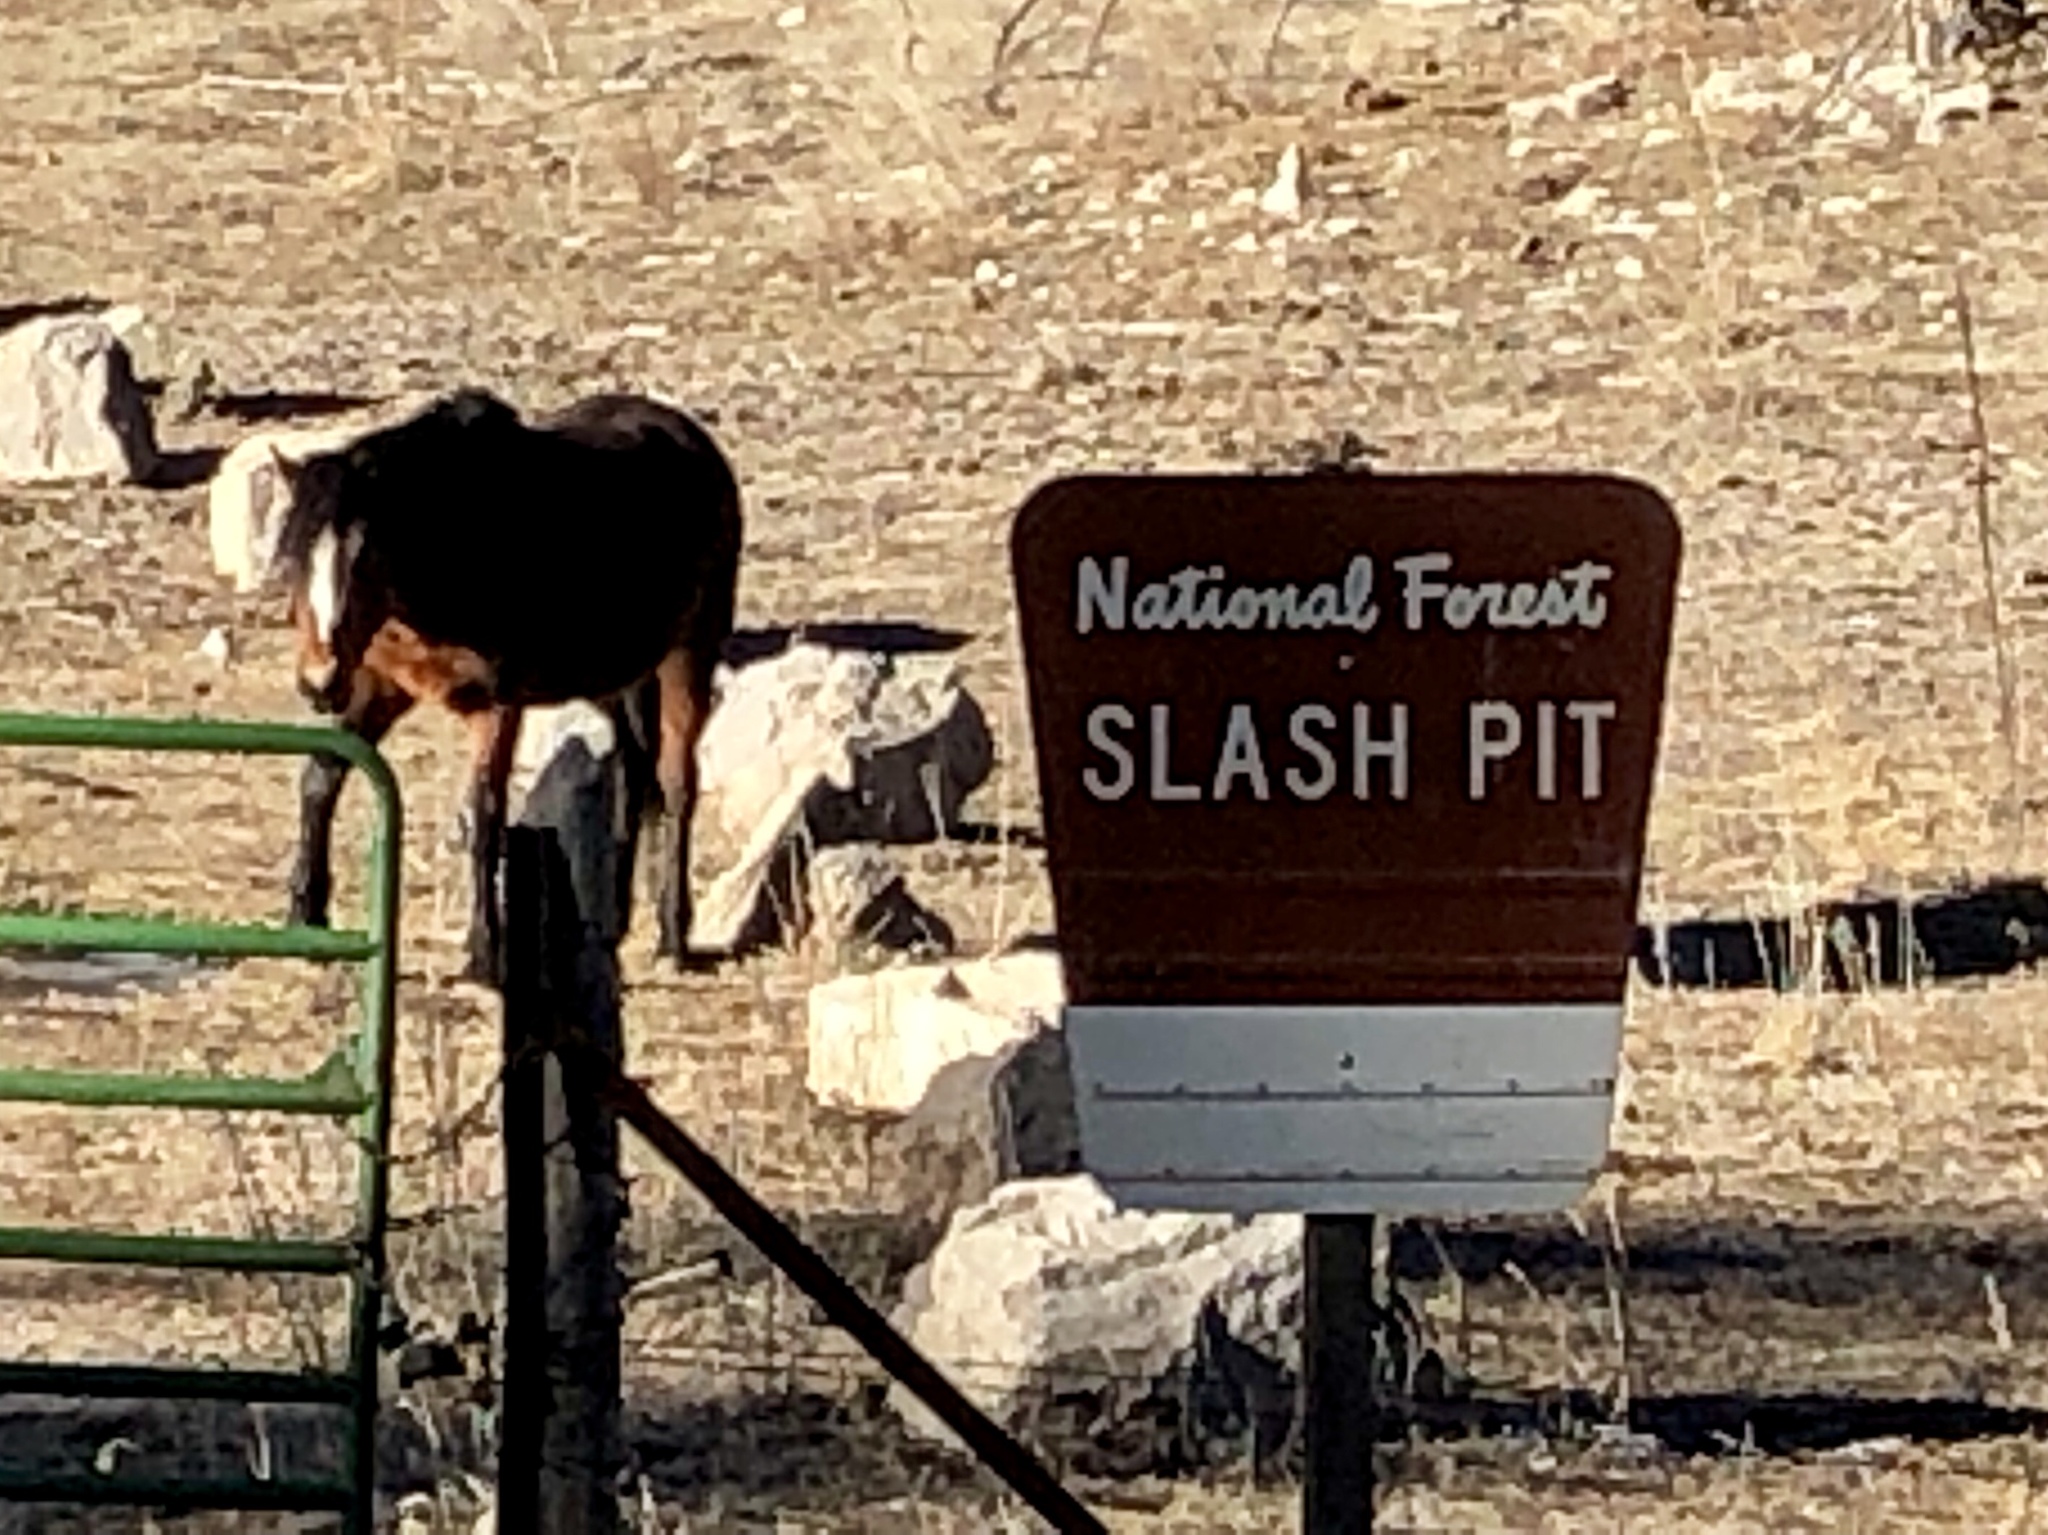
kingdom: Animalia
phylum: Chordata
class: Mammalia
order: Perissodactyla
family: Equidae
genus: Equus
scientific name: Equus caballus
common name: Horse
